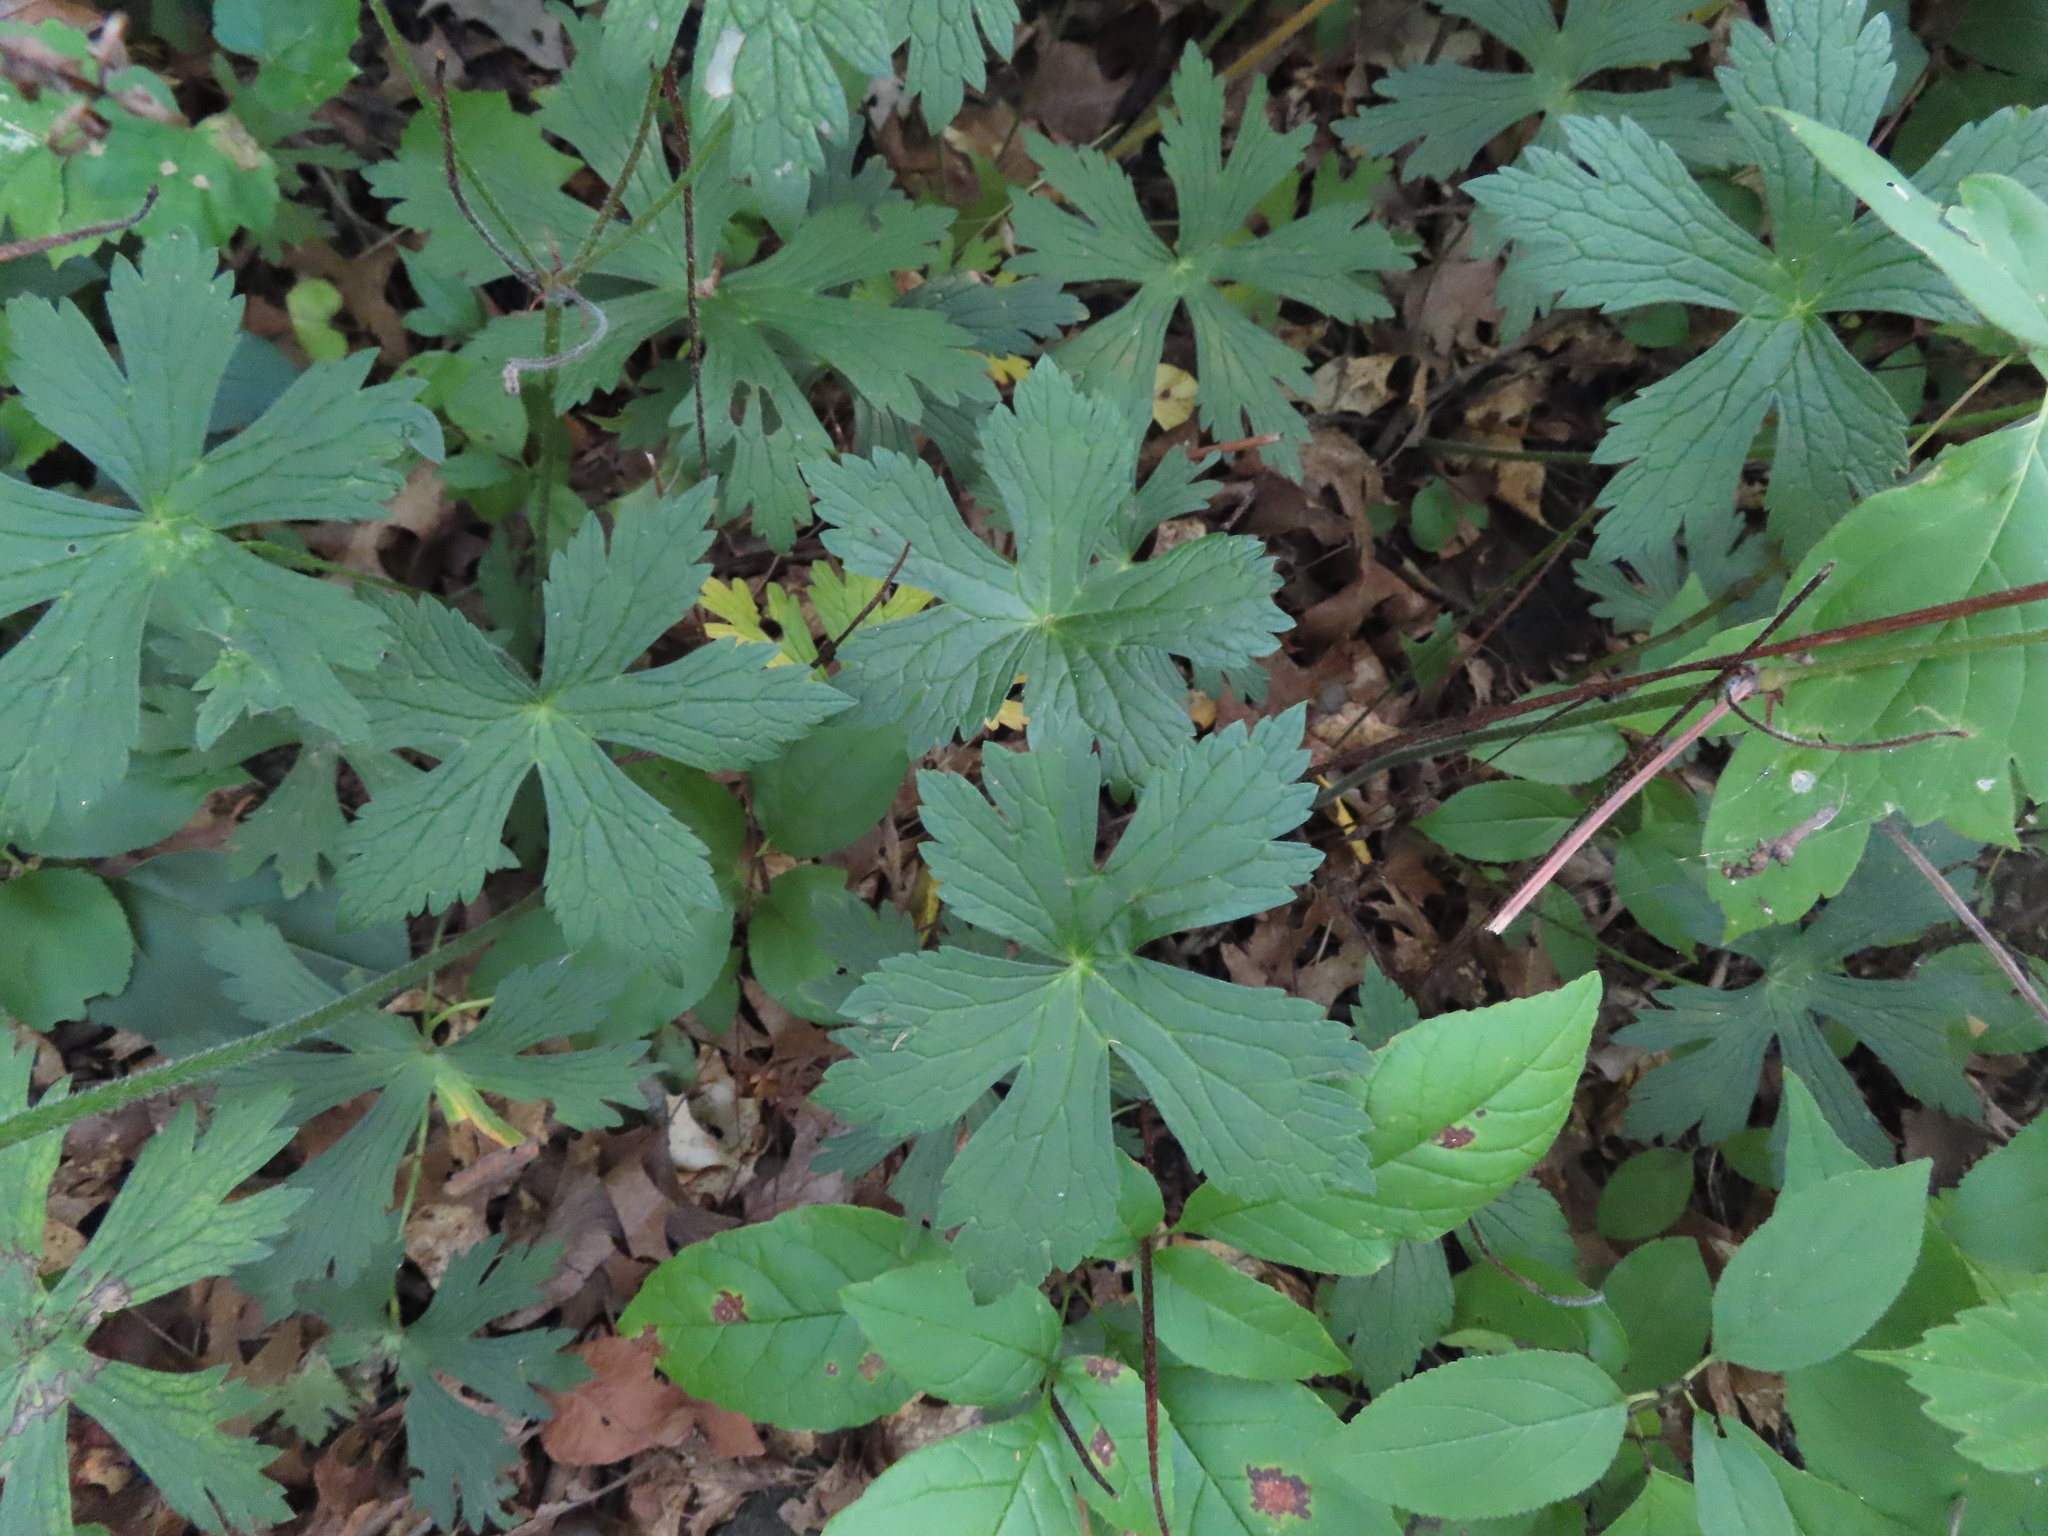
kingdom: Plantae
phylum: Tracheophyta
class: Magnoliopsida
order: Geraniales
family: Geraniaceae
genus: Geranium
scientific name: Geranium maculatum
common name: Spotted geranium
